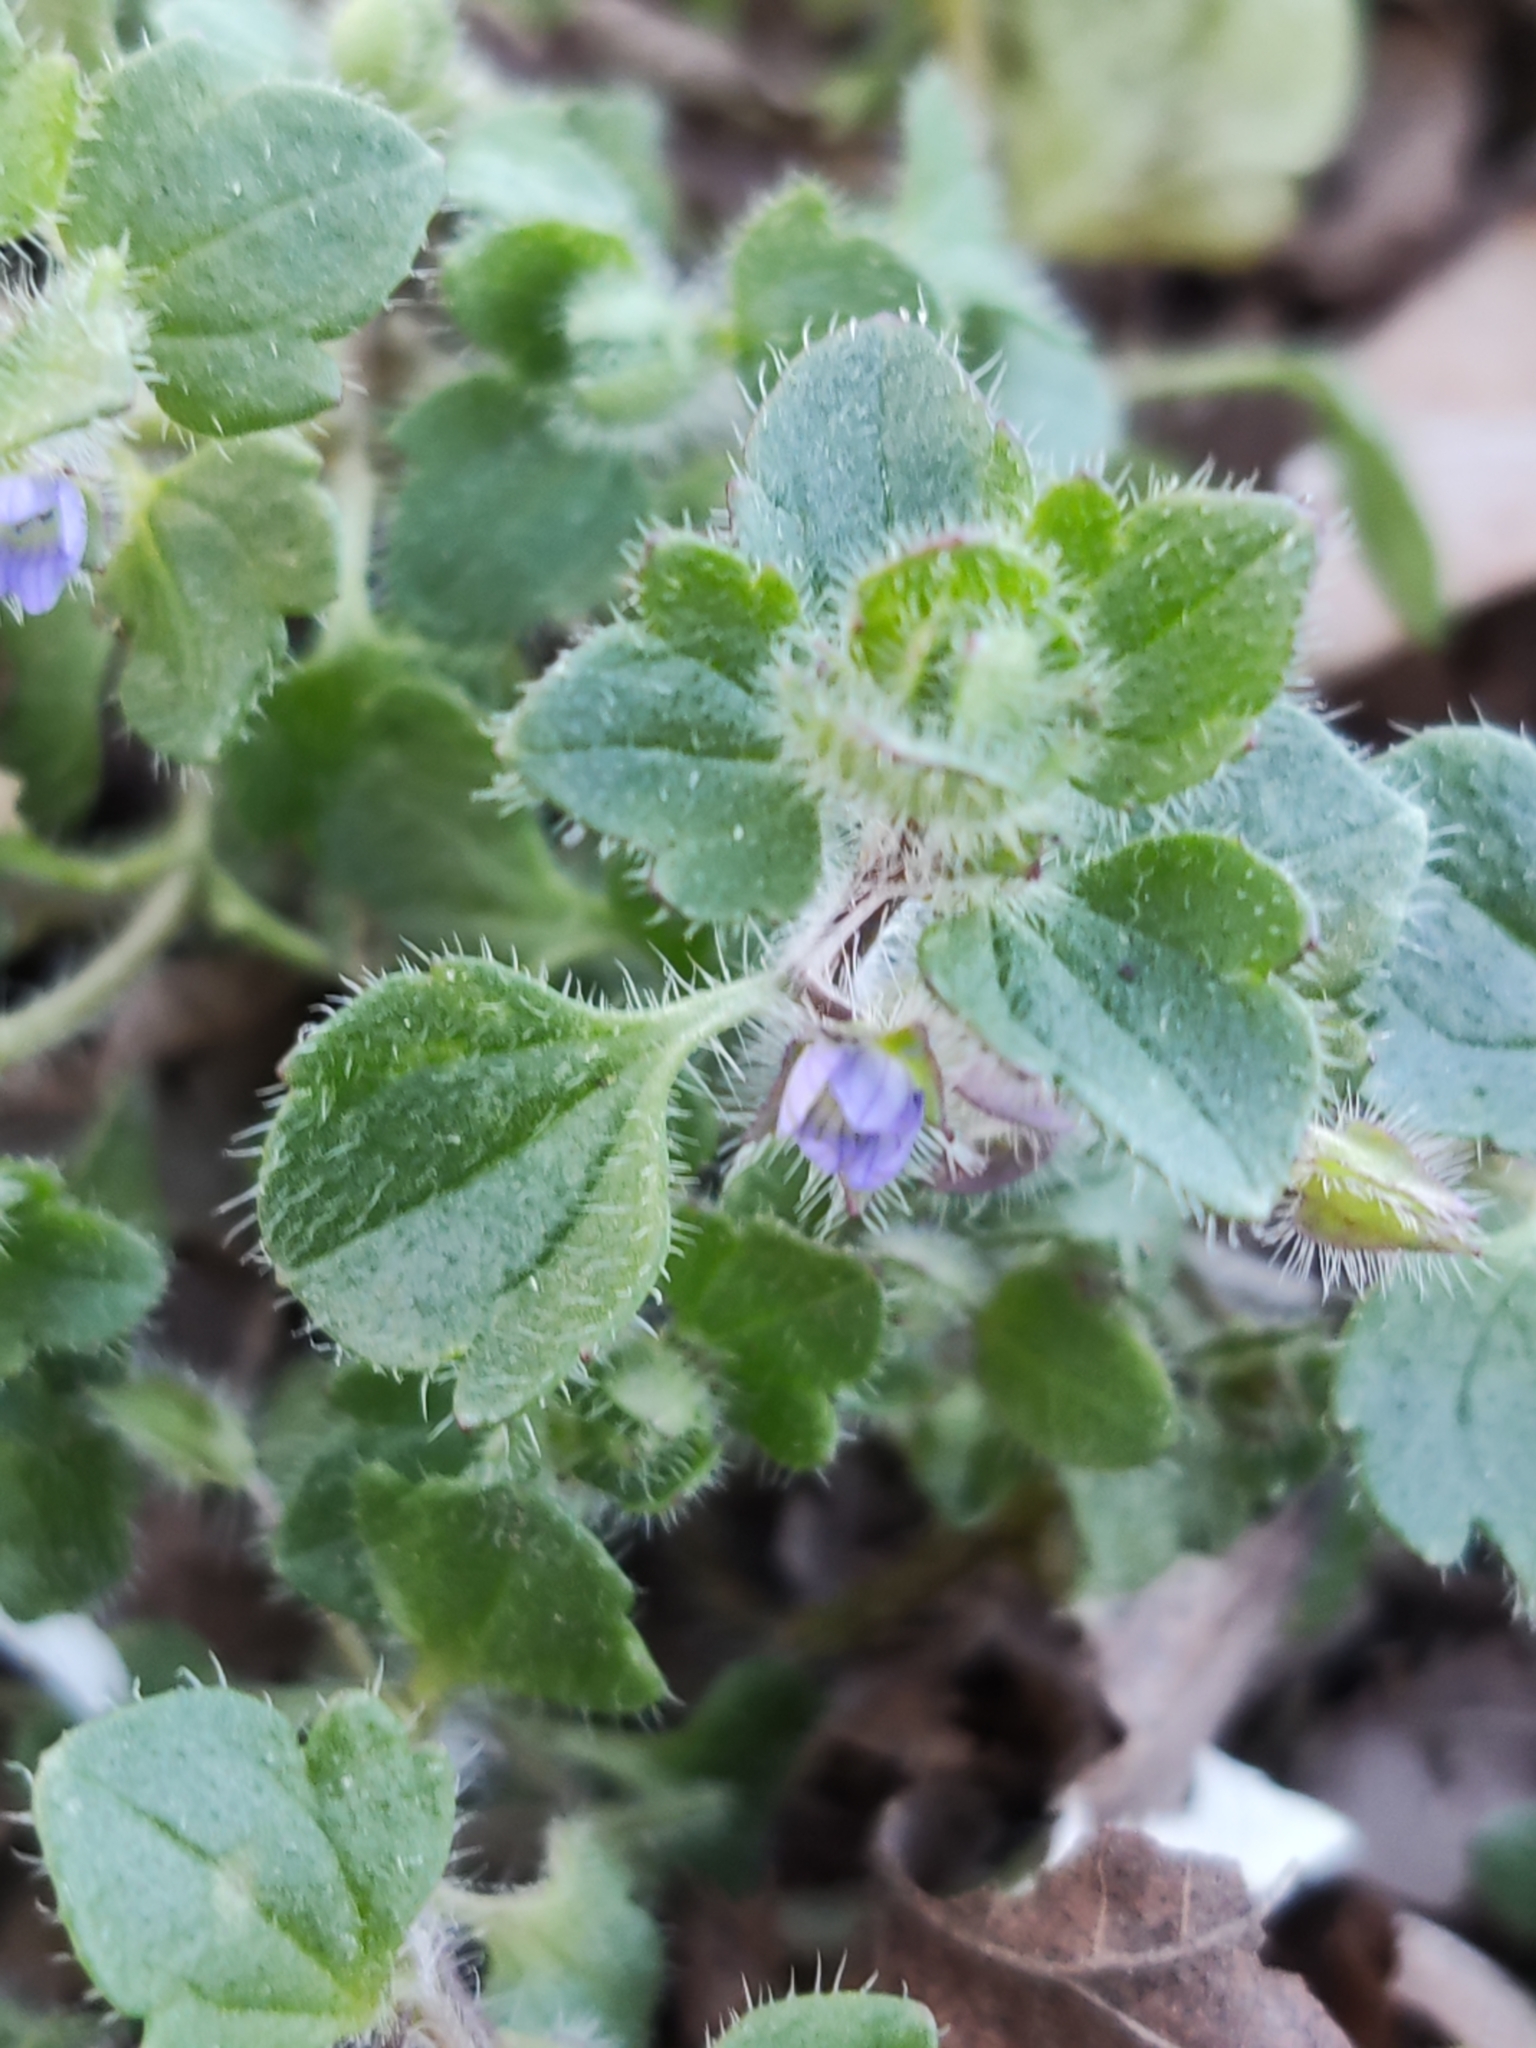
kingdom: Plantae
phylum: Tracheophyta
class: Magnoliopsida
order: Lamiales
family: Plantaginaceae
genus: Veronica
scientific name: Veronica hederifolia
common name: Ivy-leaved speedwell
